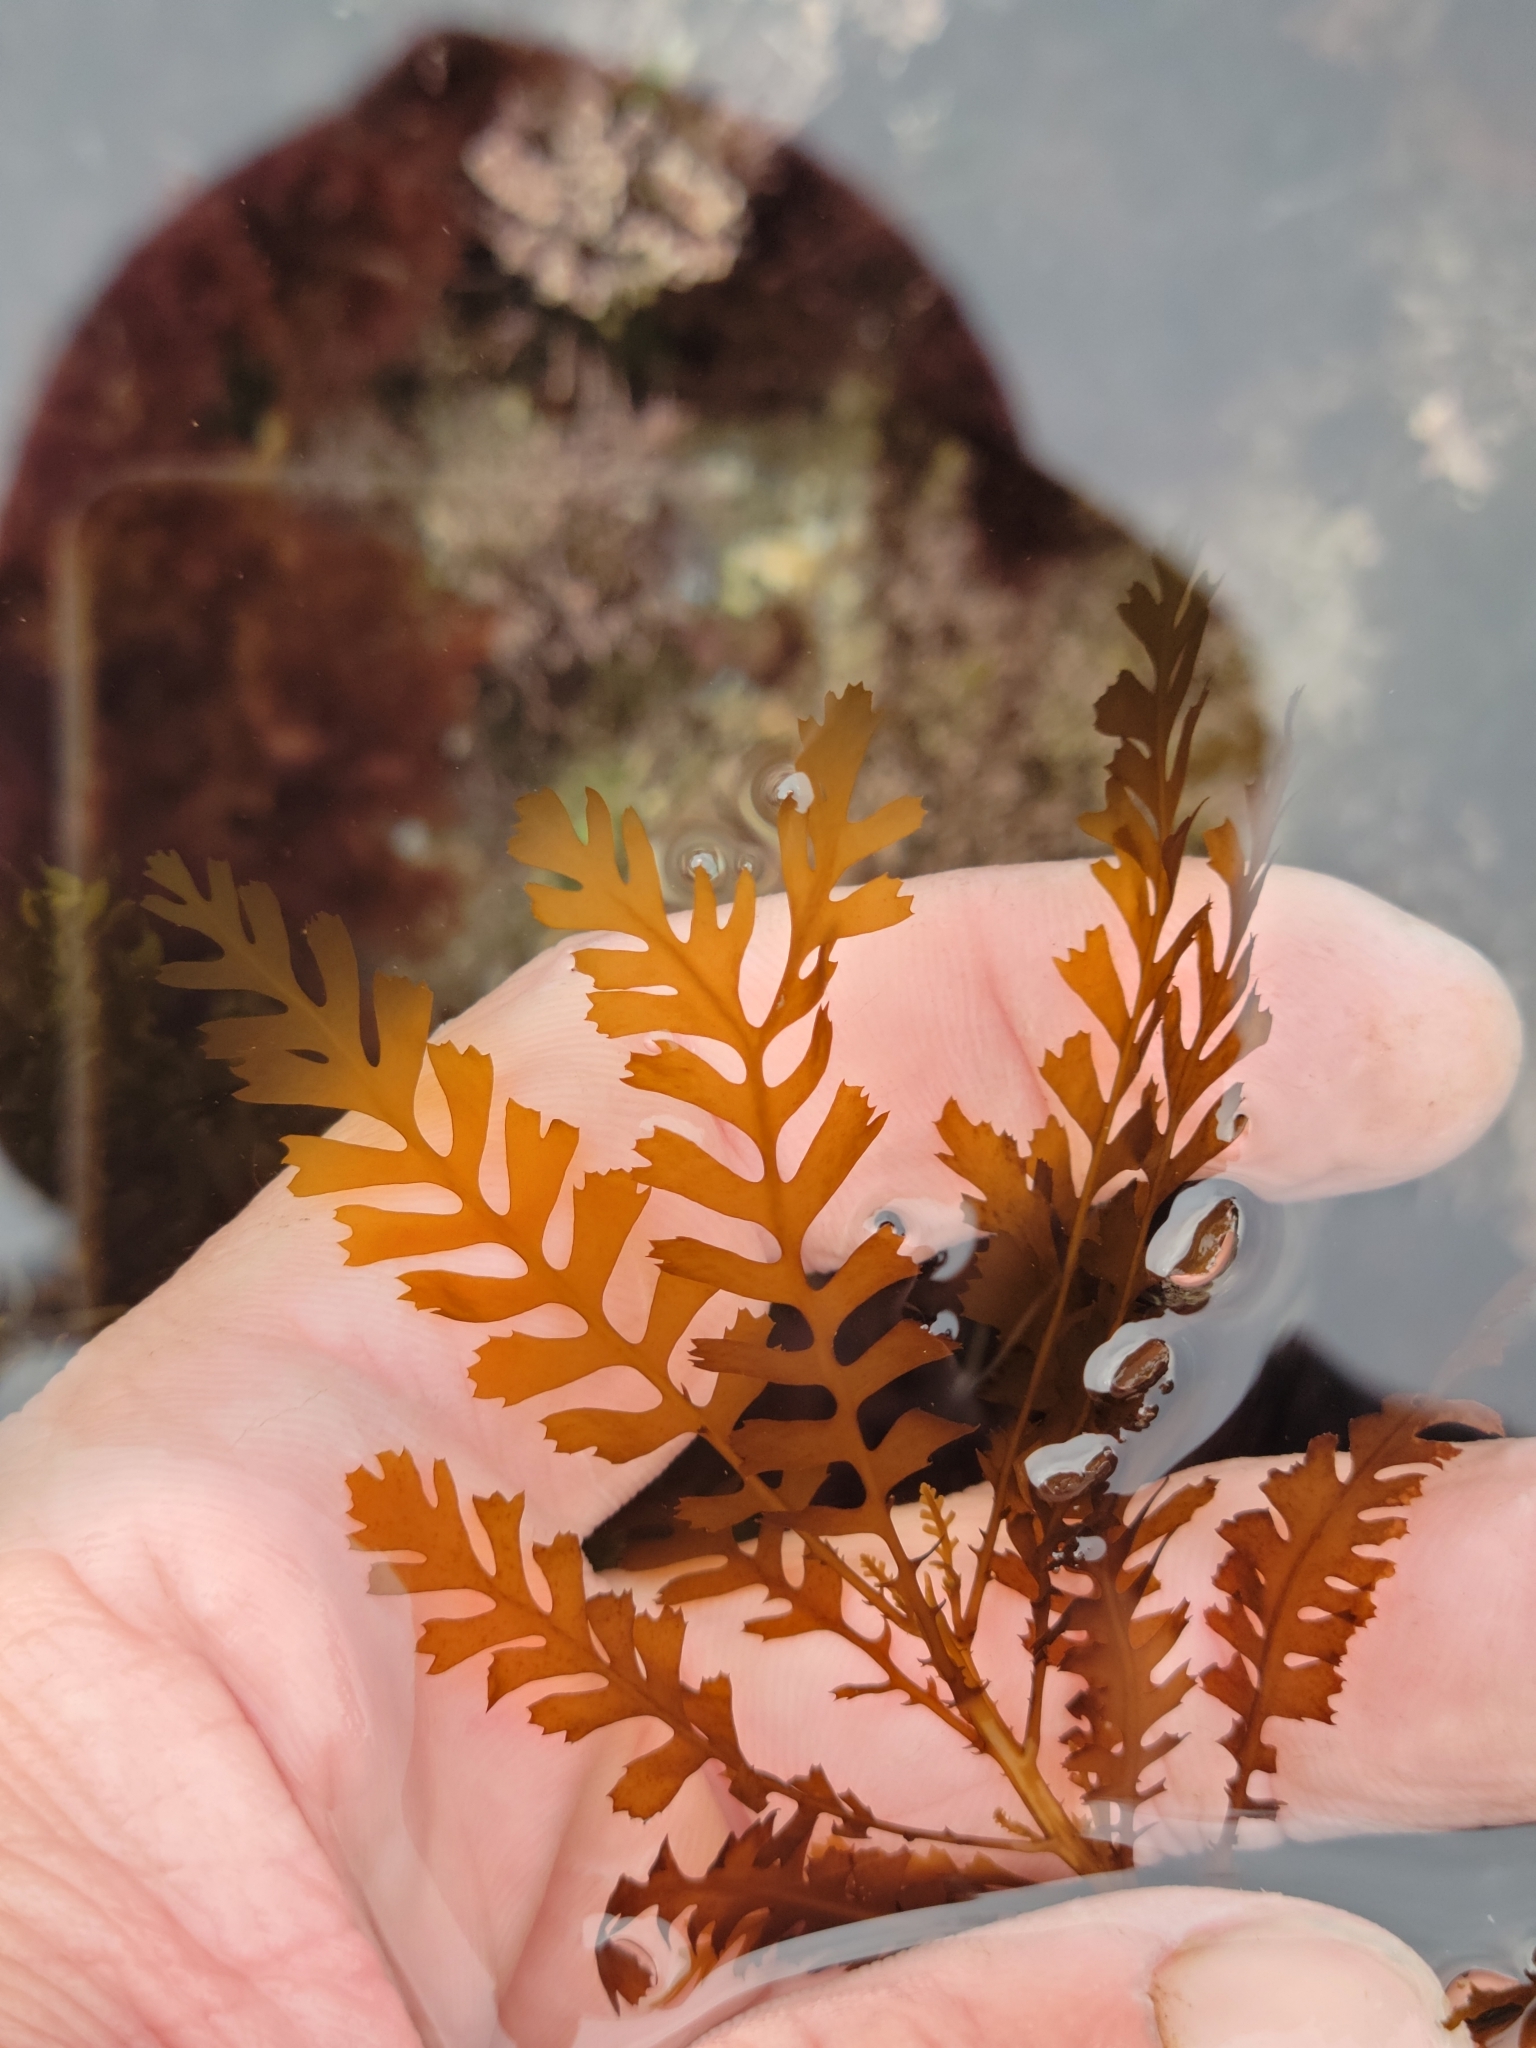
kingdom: Chromista
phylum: Ochrophyta
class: Phaeophyceae
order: Fucales
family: Sargassaceae
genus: Sargassum
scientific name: Sargassum horneri
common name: Devil weed
